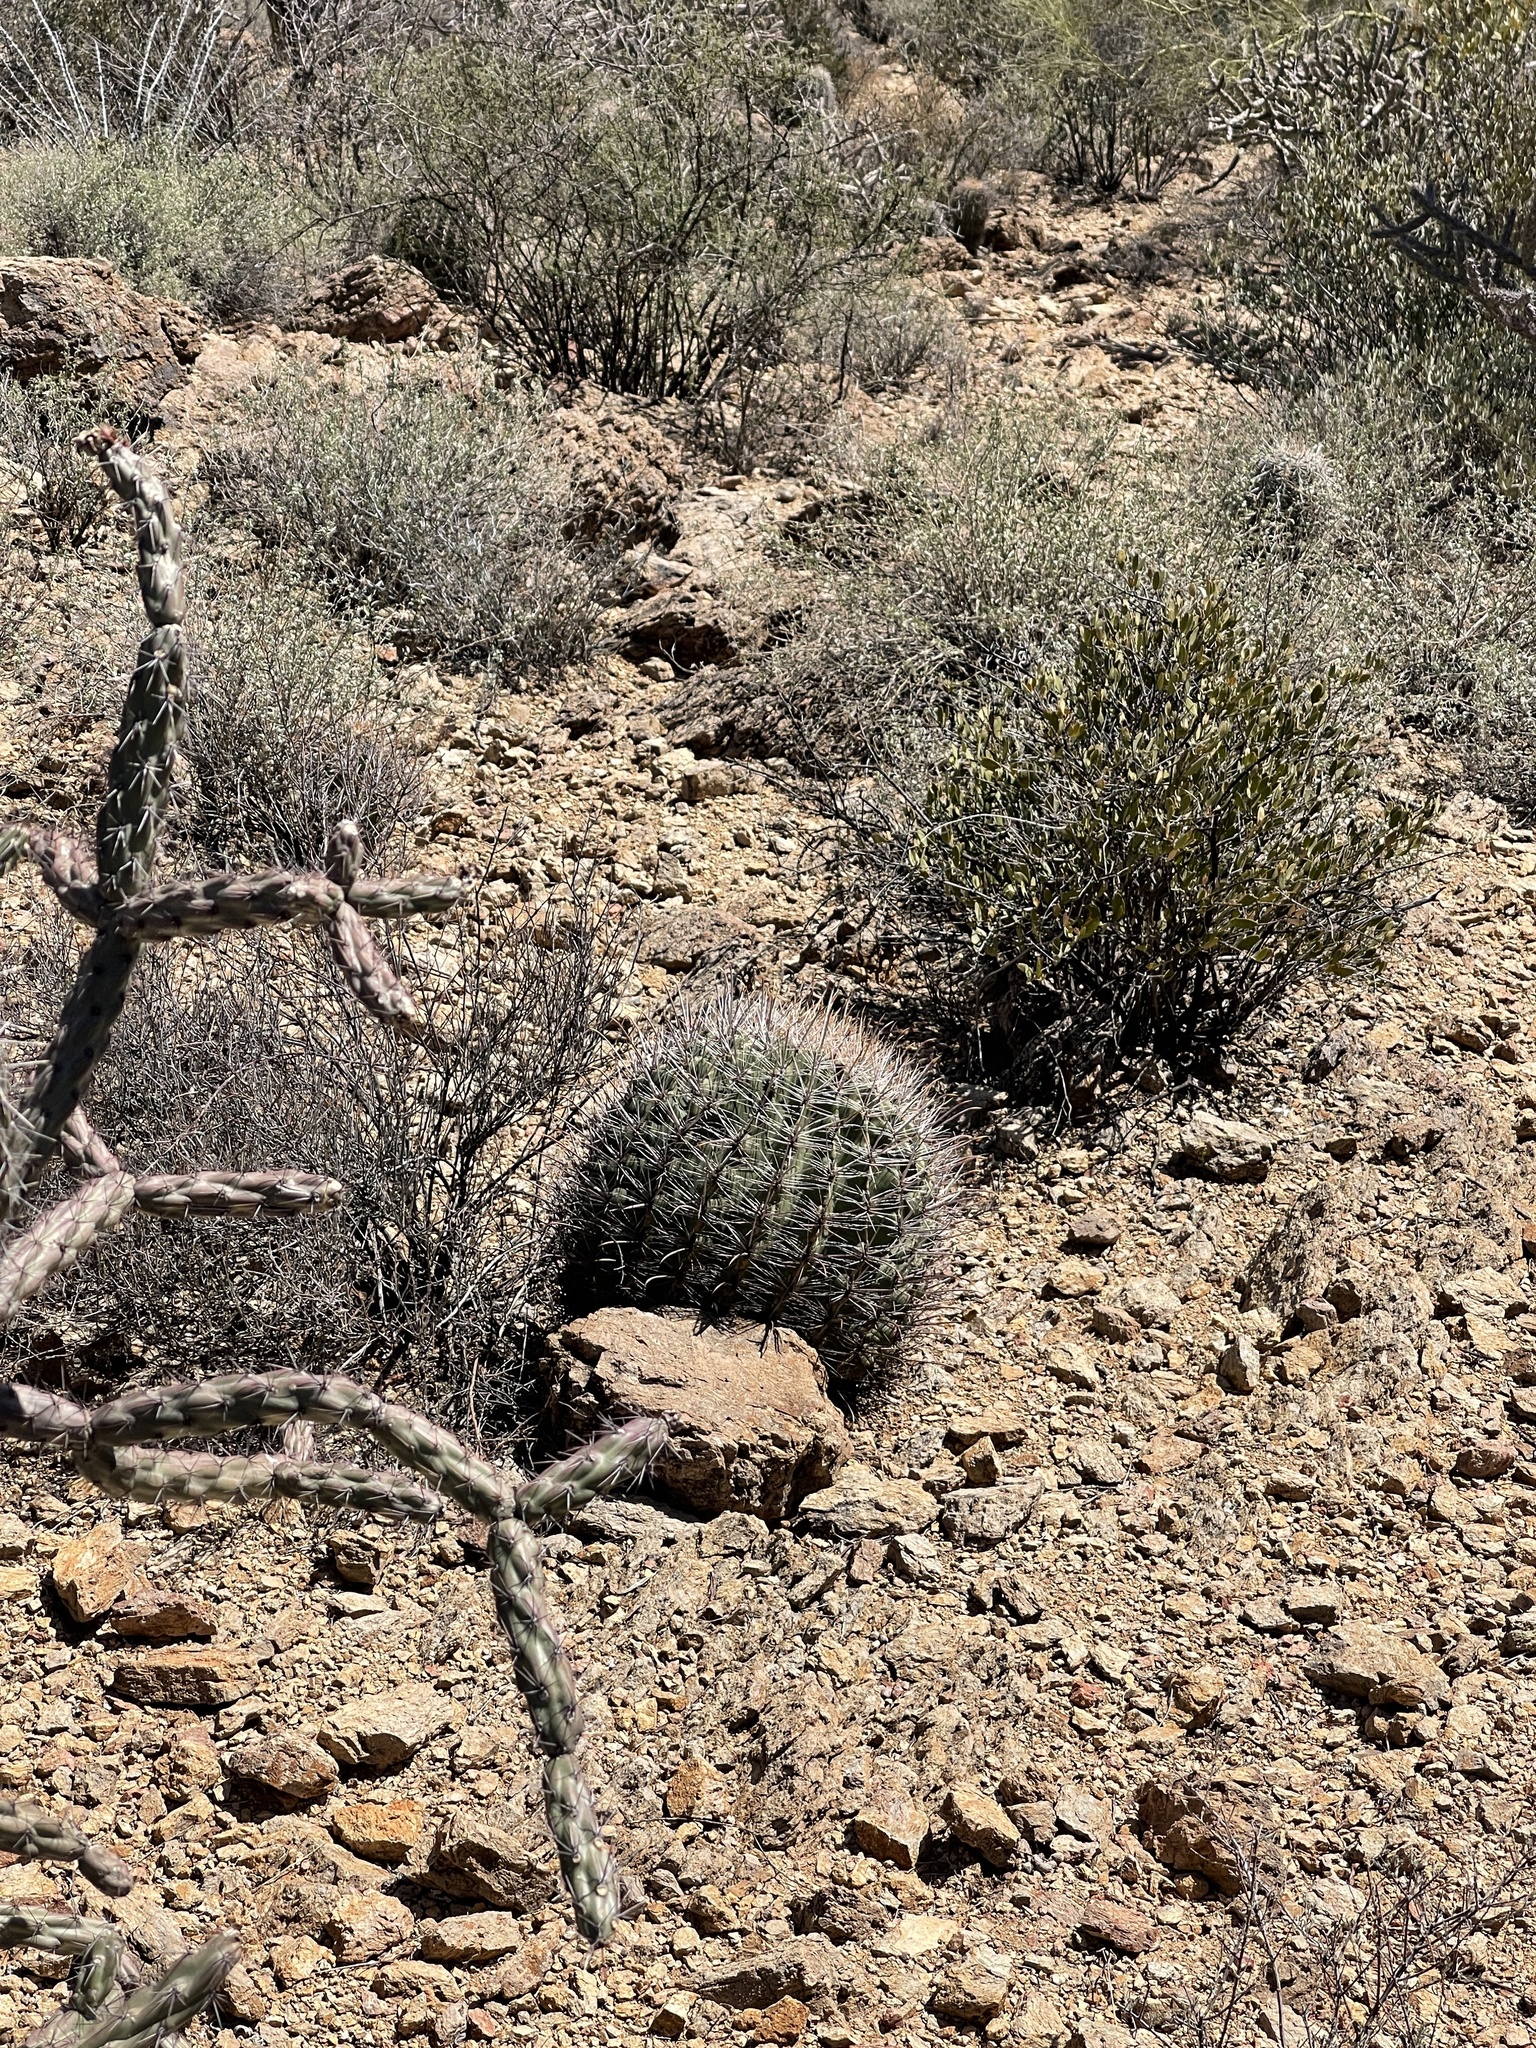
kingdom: Plantae
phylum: Tracheophyta
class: Magnoliopsida
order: Caryophyllales
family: Cactaceae
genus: Ferocactus
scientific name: Ferocactus wislizeni
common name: Candy barrel cactus
